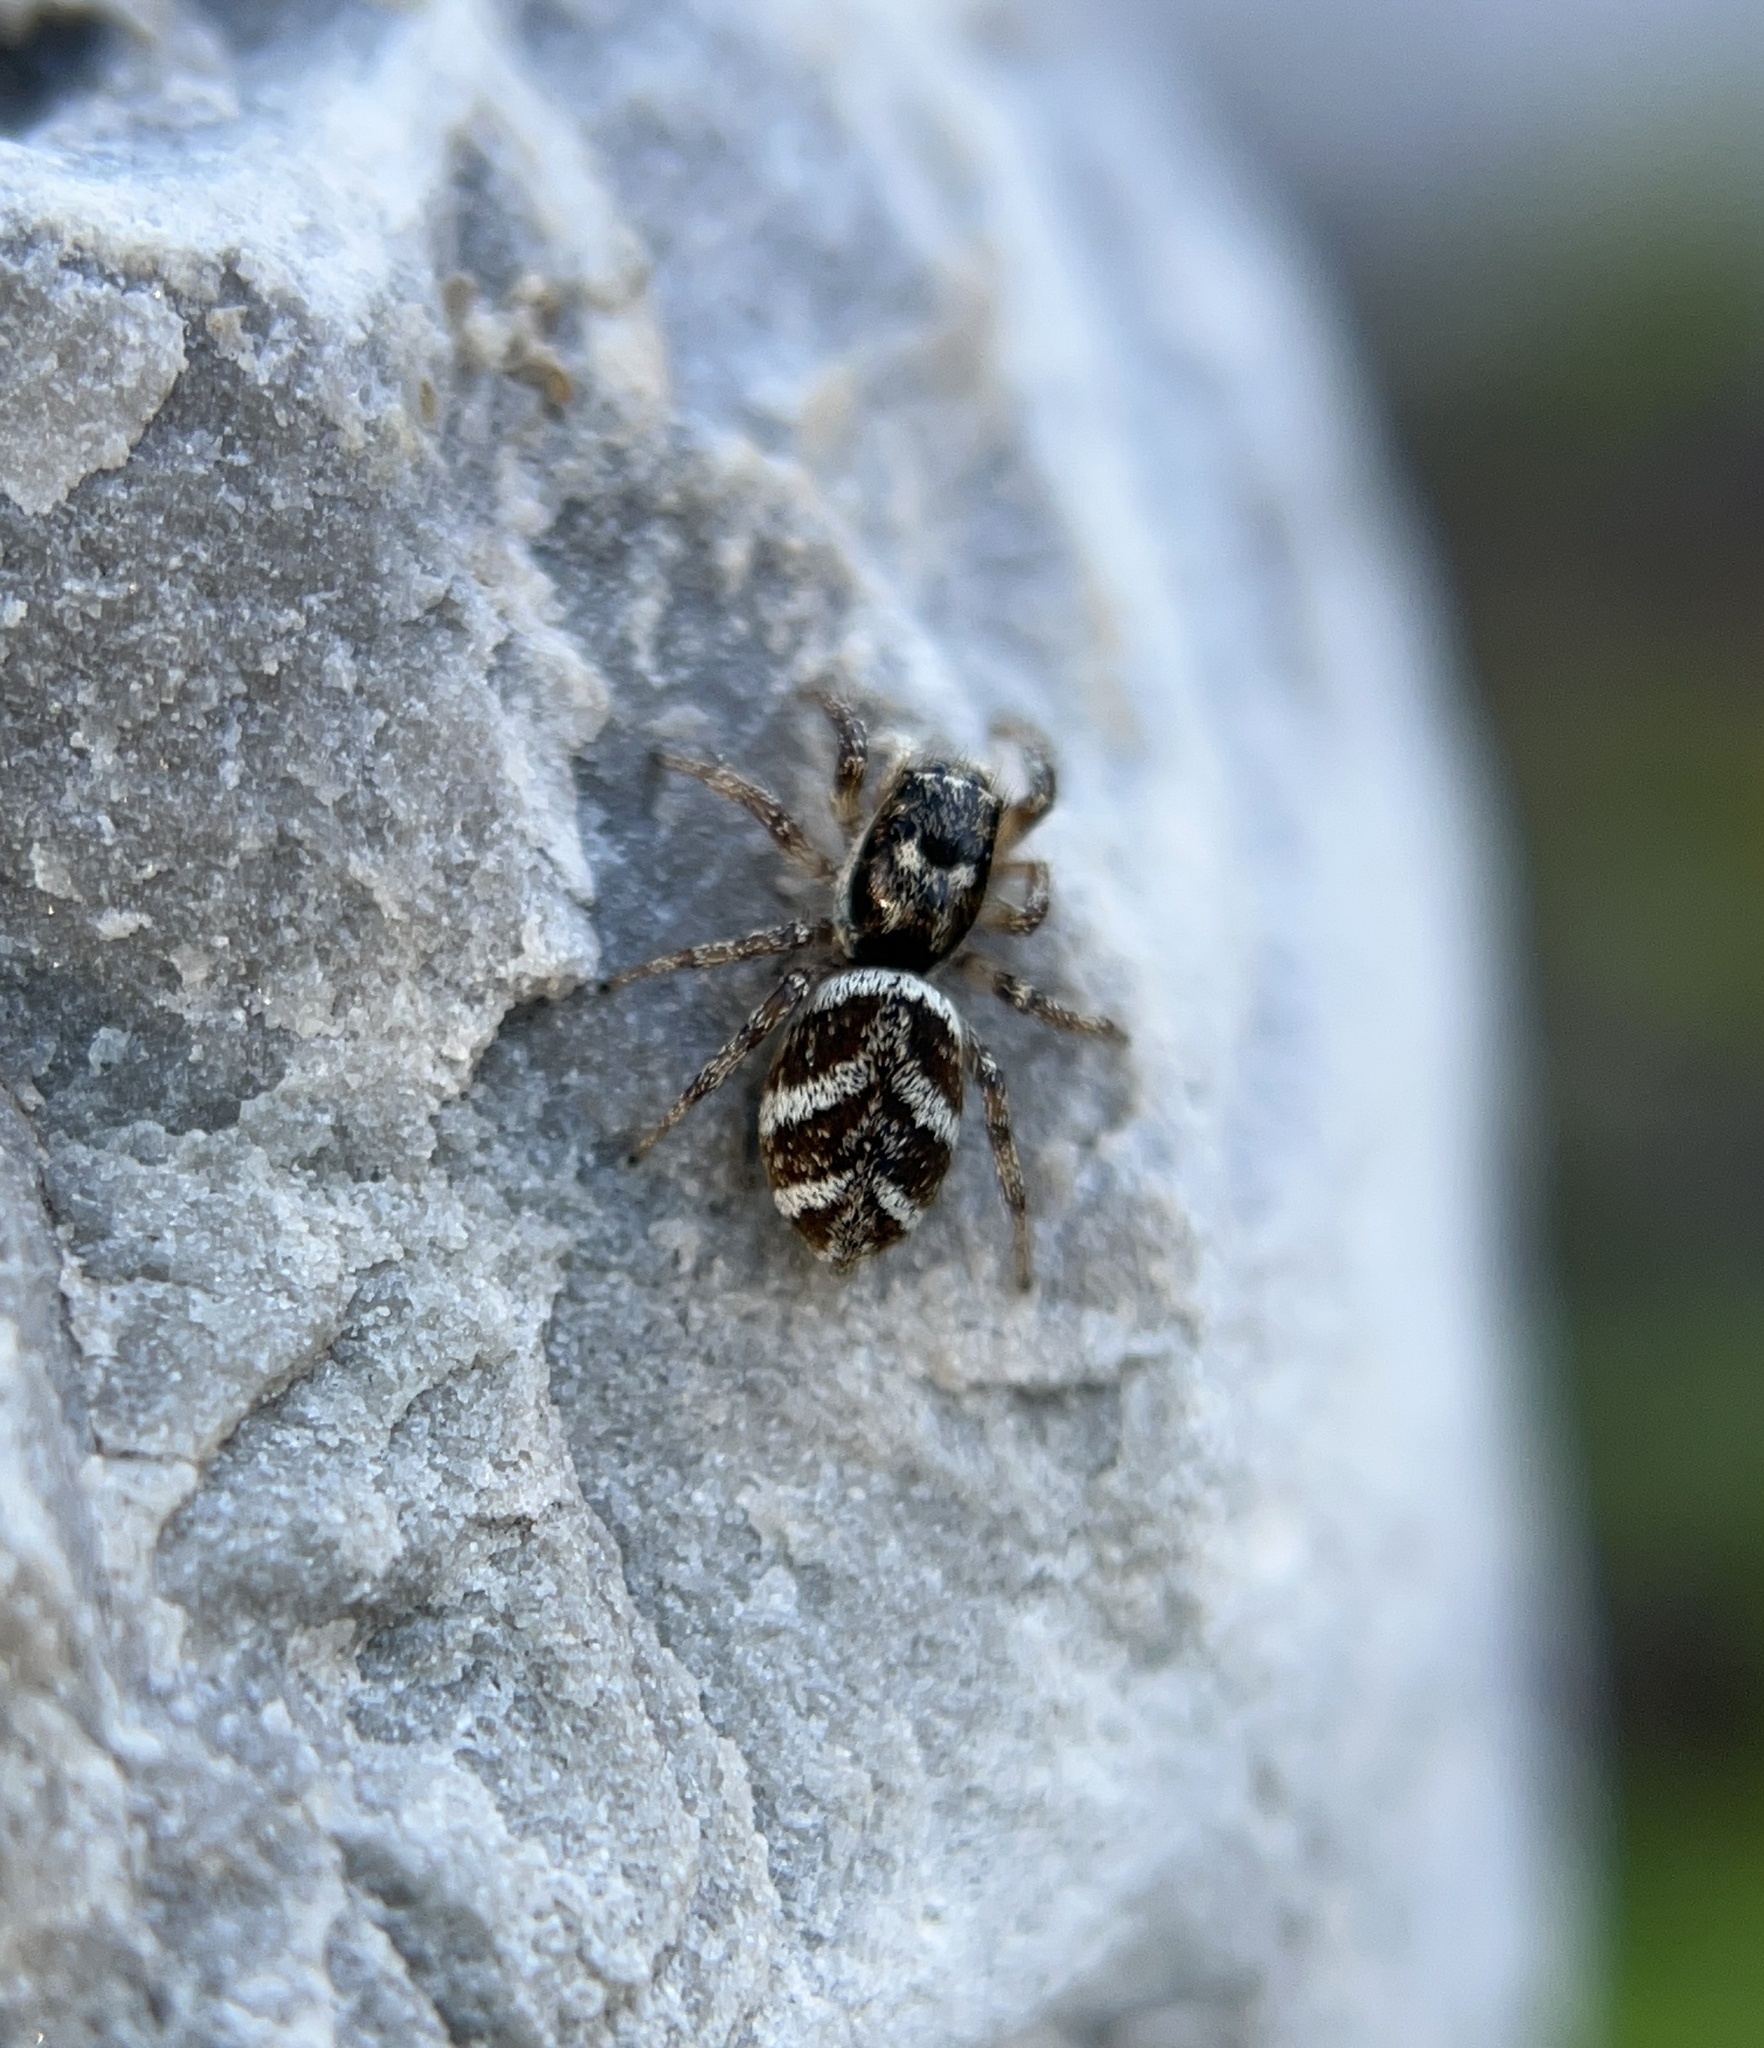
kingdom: Animalia
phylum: Arthropoda
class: Arachnida
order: Araneae
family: Salticidae
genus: Salticus
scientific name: Salticus scenicus
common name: Zebra jumper
